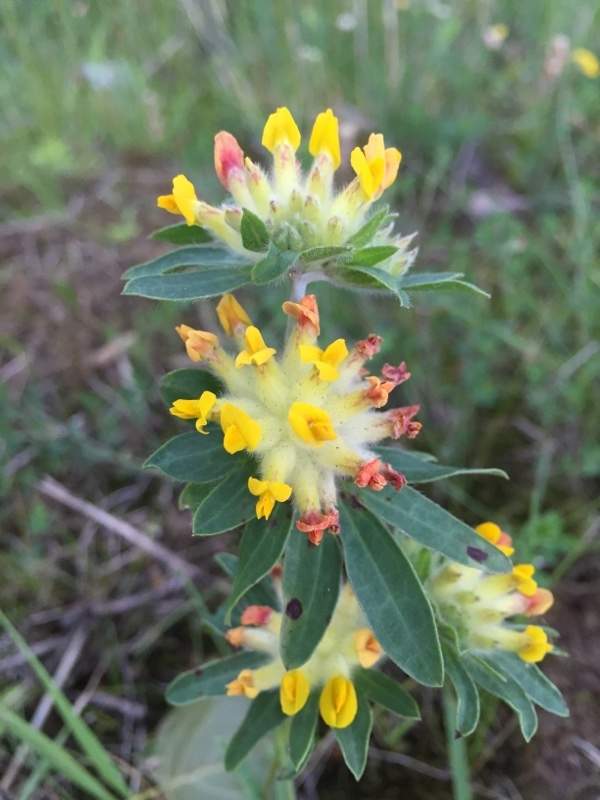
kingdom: Plantae
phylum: Tracheophyta
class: Magnoliopsida
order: Fabales
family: Fabaceae
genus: Anthyllis
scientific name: Anthyllis vulneraria
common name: Kidney vetch
